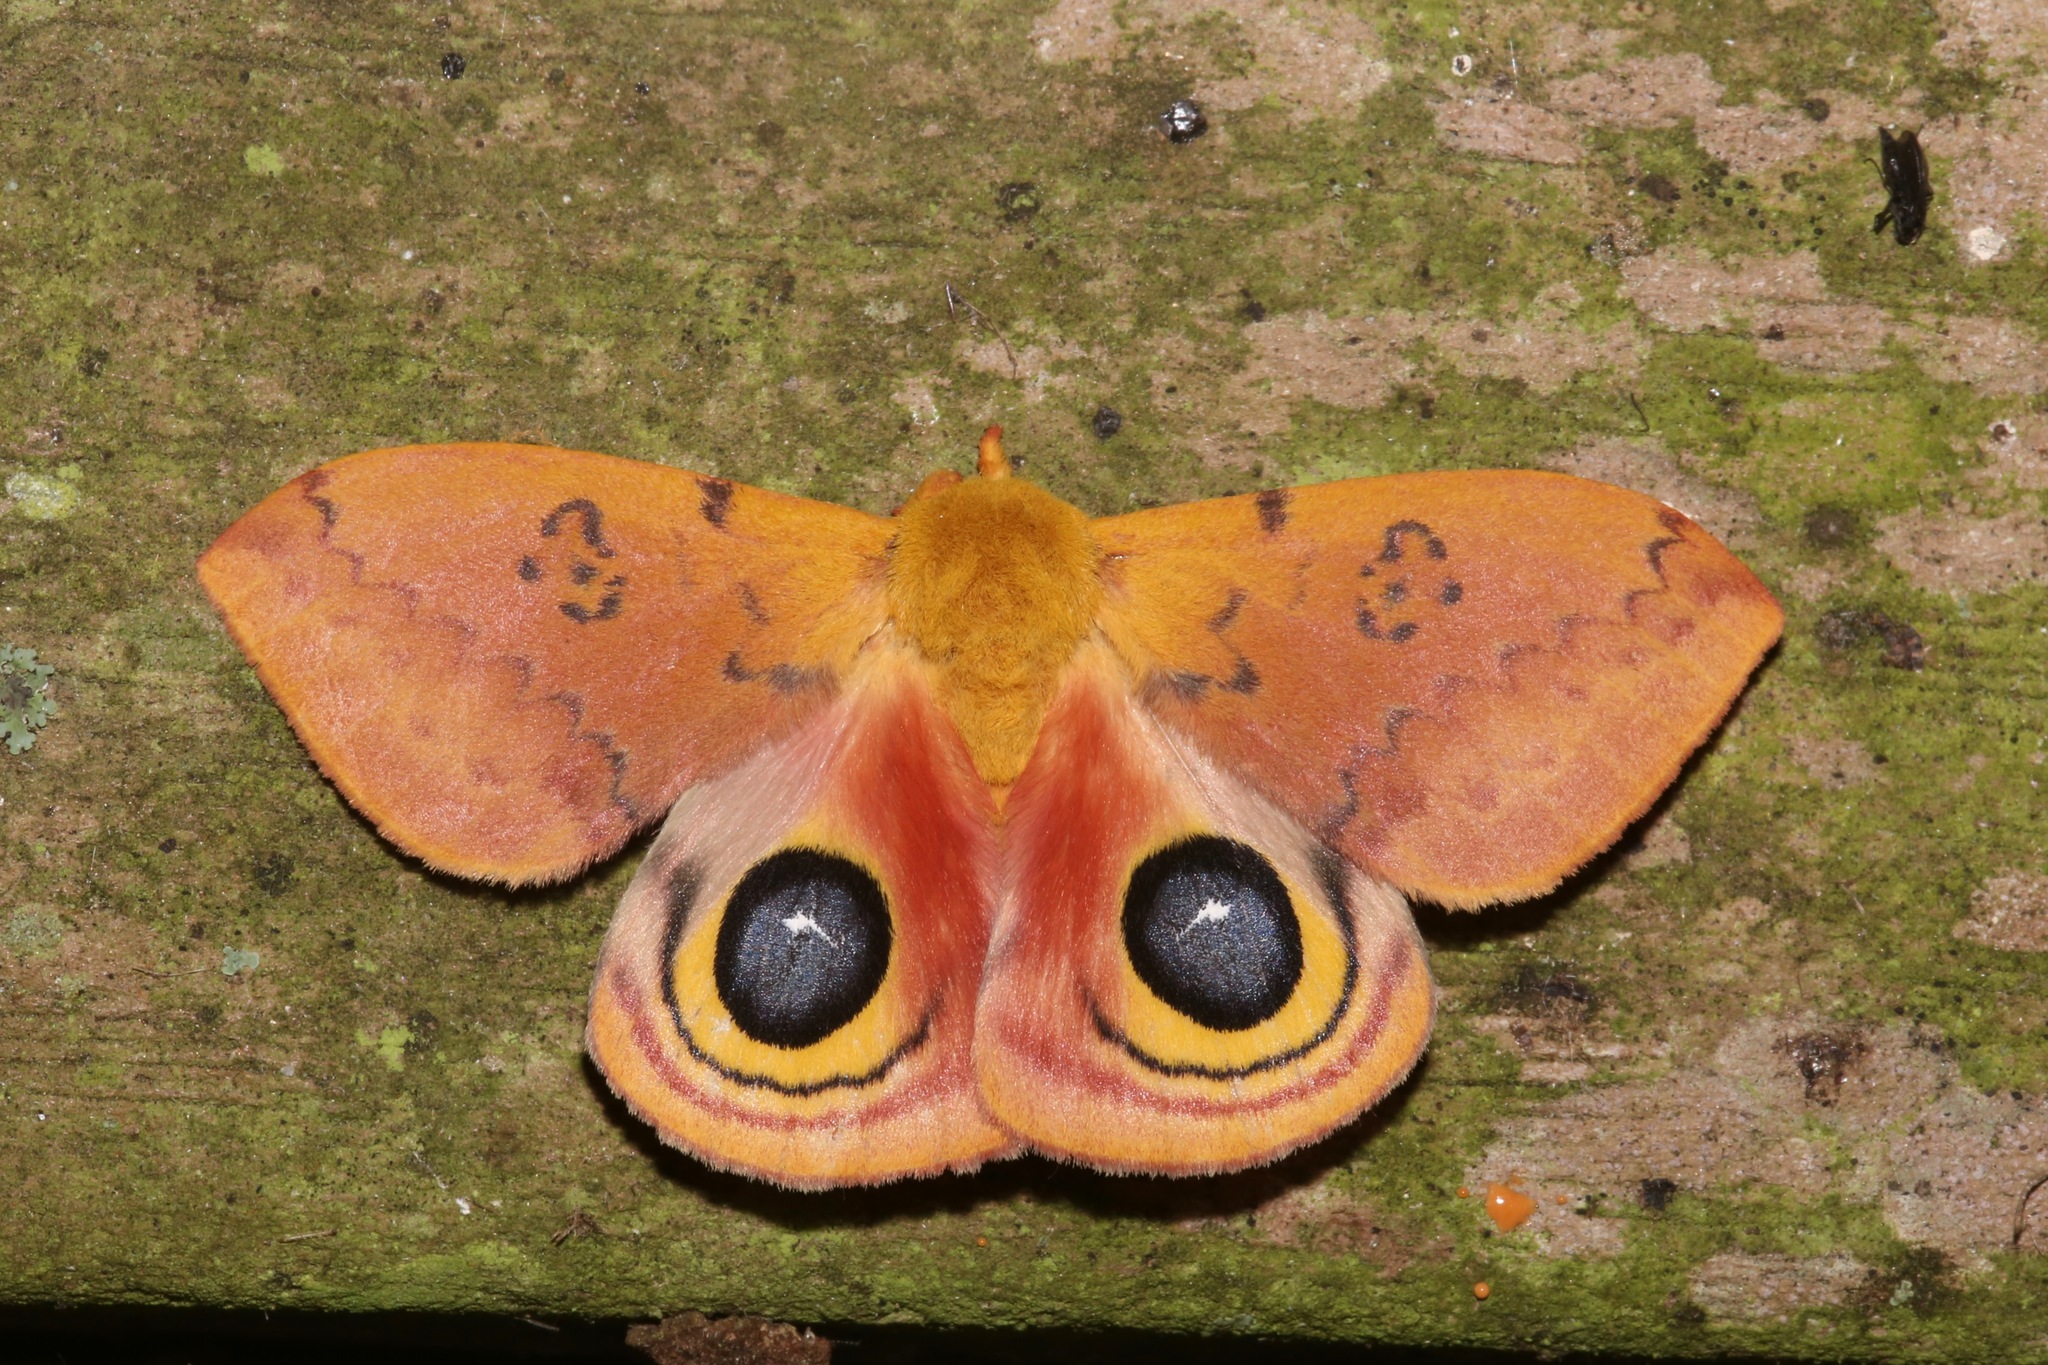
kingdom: Animalia
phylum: Arthropoda
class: Insecta
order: Lepidoptera
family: Saturniidae
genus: Automeris
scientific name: Automeris io
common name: Io moth
